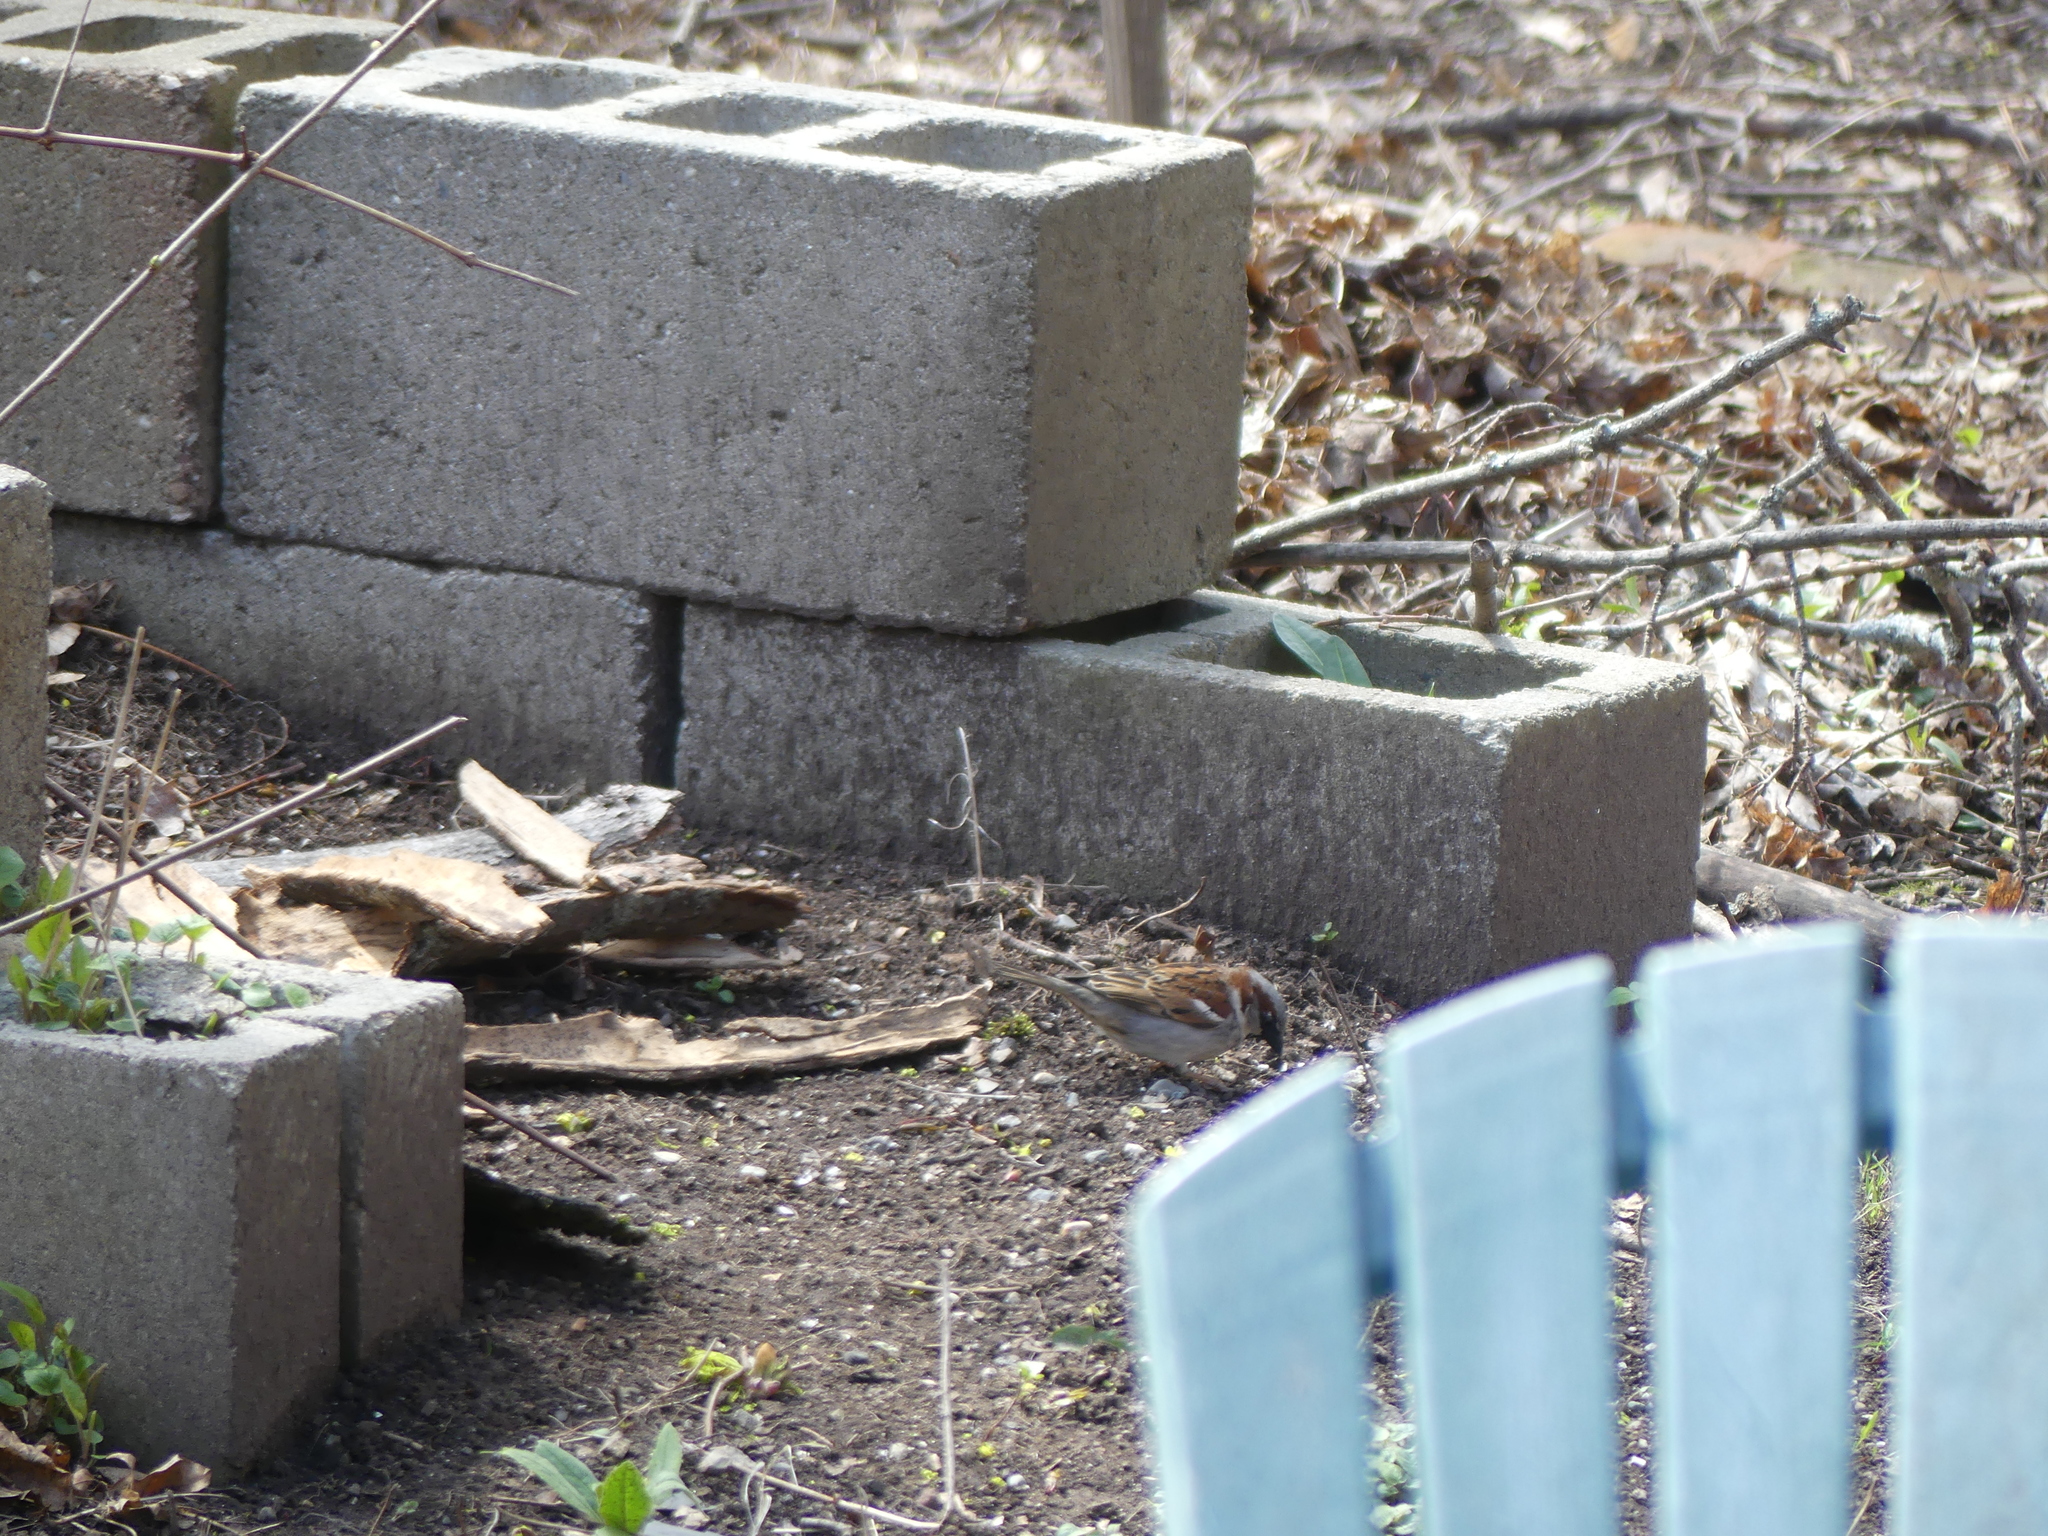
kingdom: Animalia
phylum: Chordata
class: Aves
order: Passeriformes
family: Passeridae
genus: Passer
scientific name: Passer domesticus
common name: House sparrow
